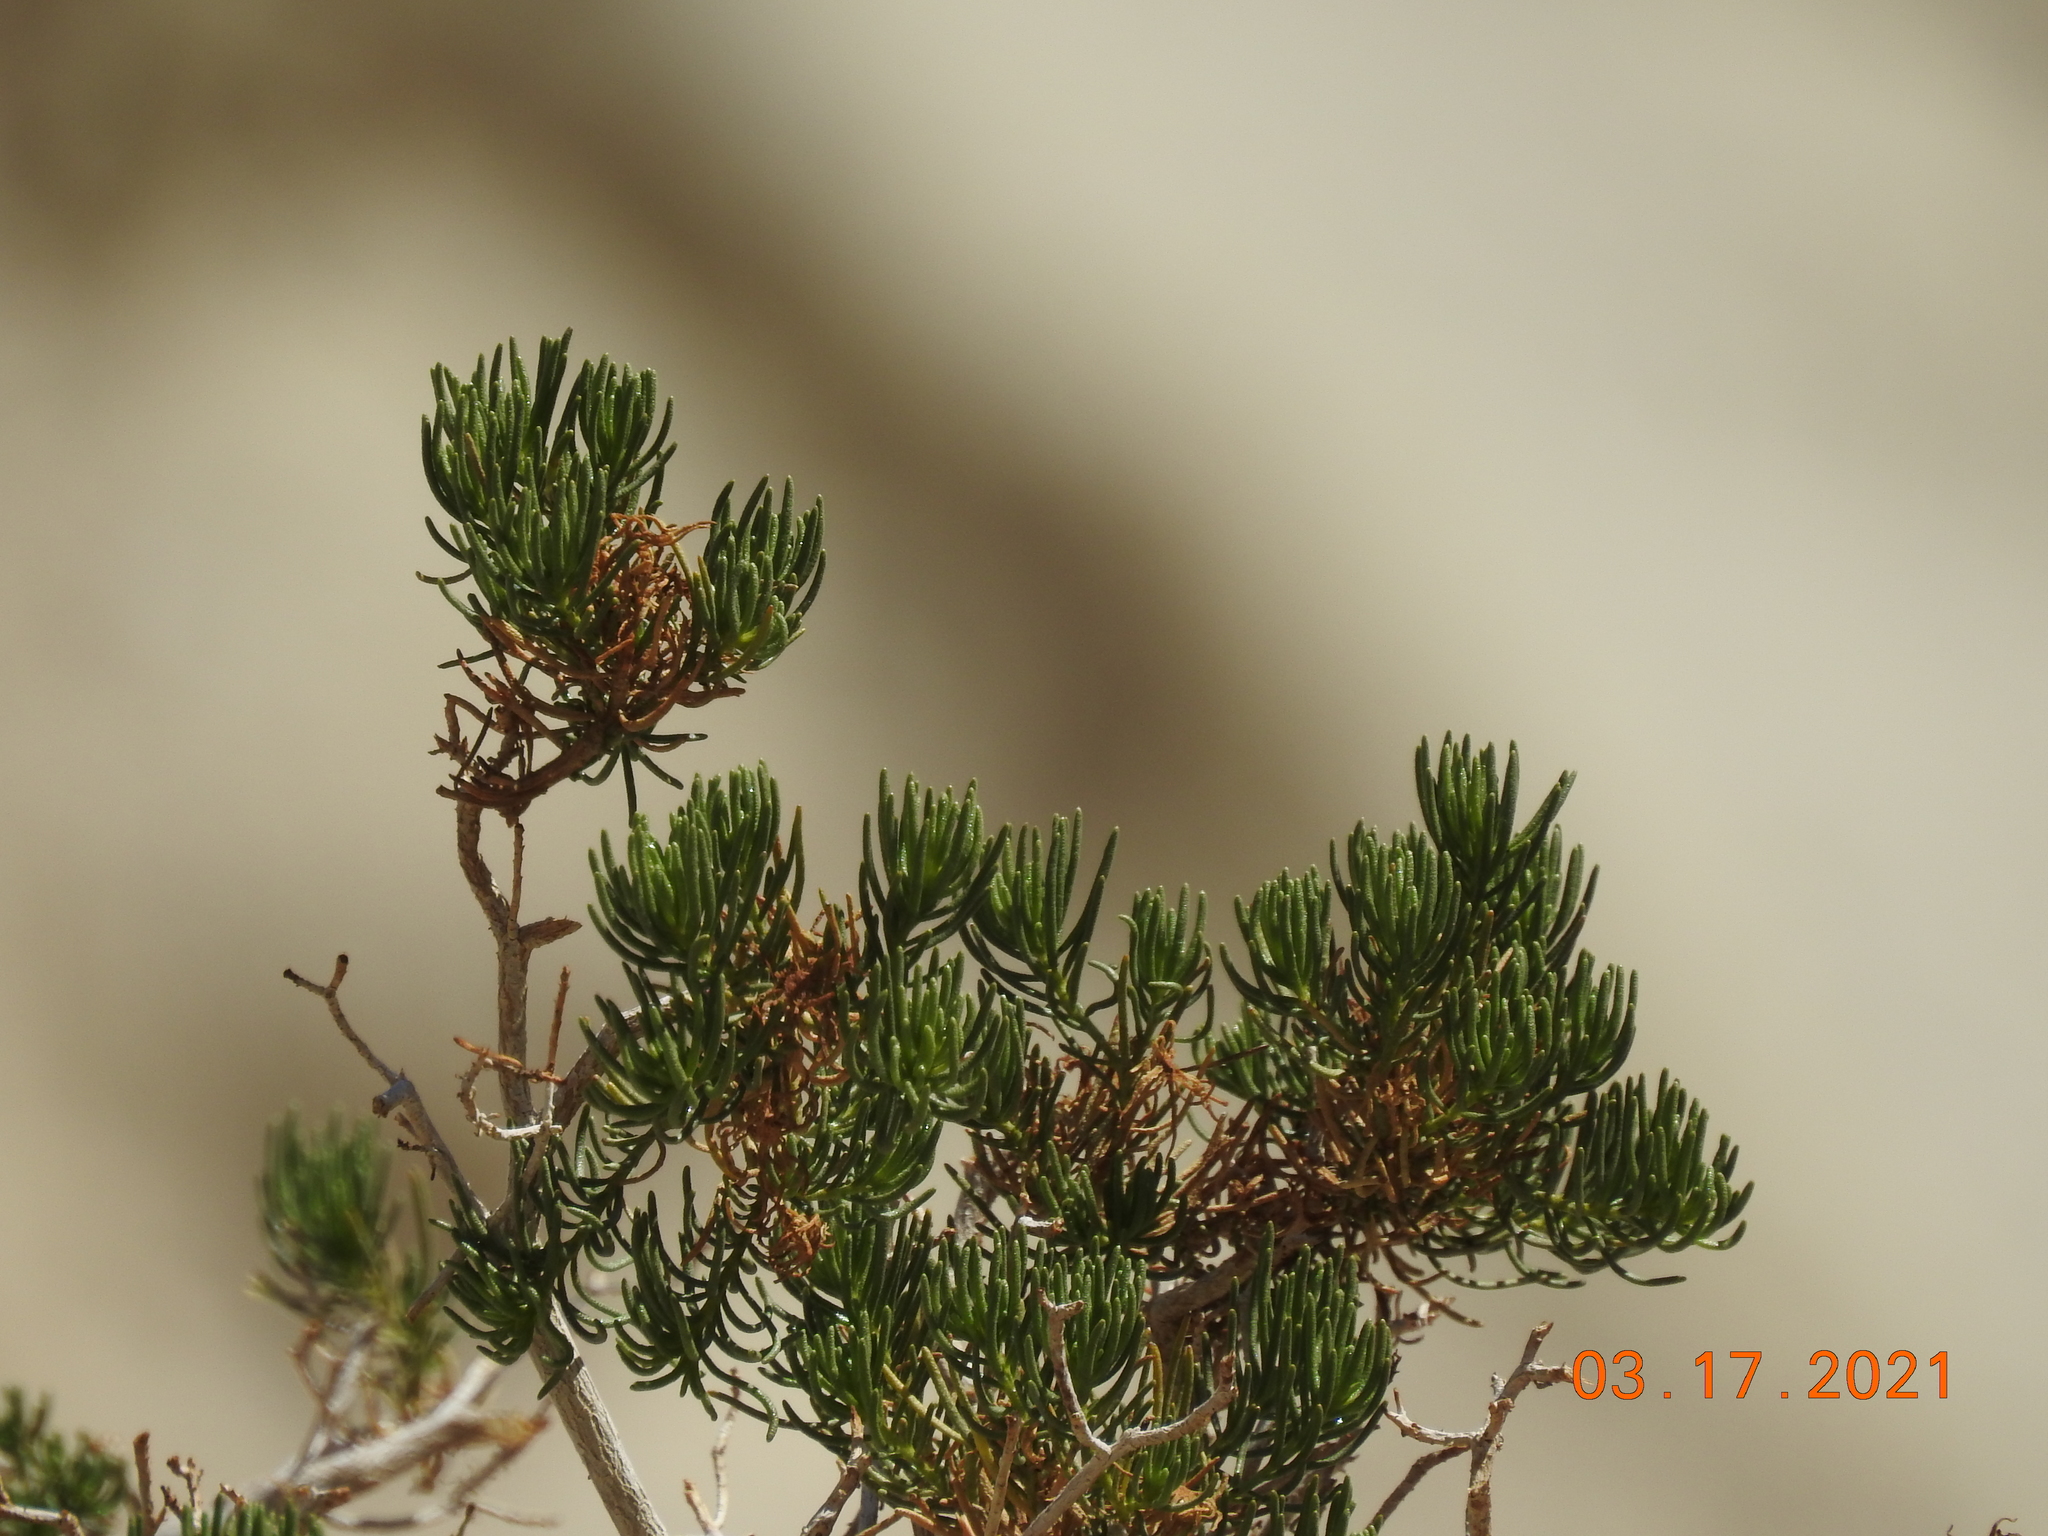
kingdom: Plantae
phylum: Tracheophyta
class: Magnoliopsida
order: Asterales
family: Asteraceae
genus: Peucephyllum
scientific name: Peucephyllum schottii
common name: Pygmy-cedar
